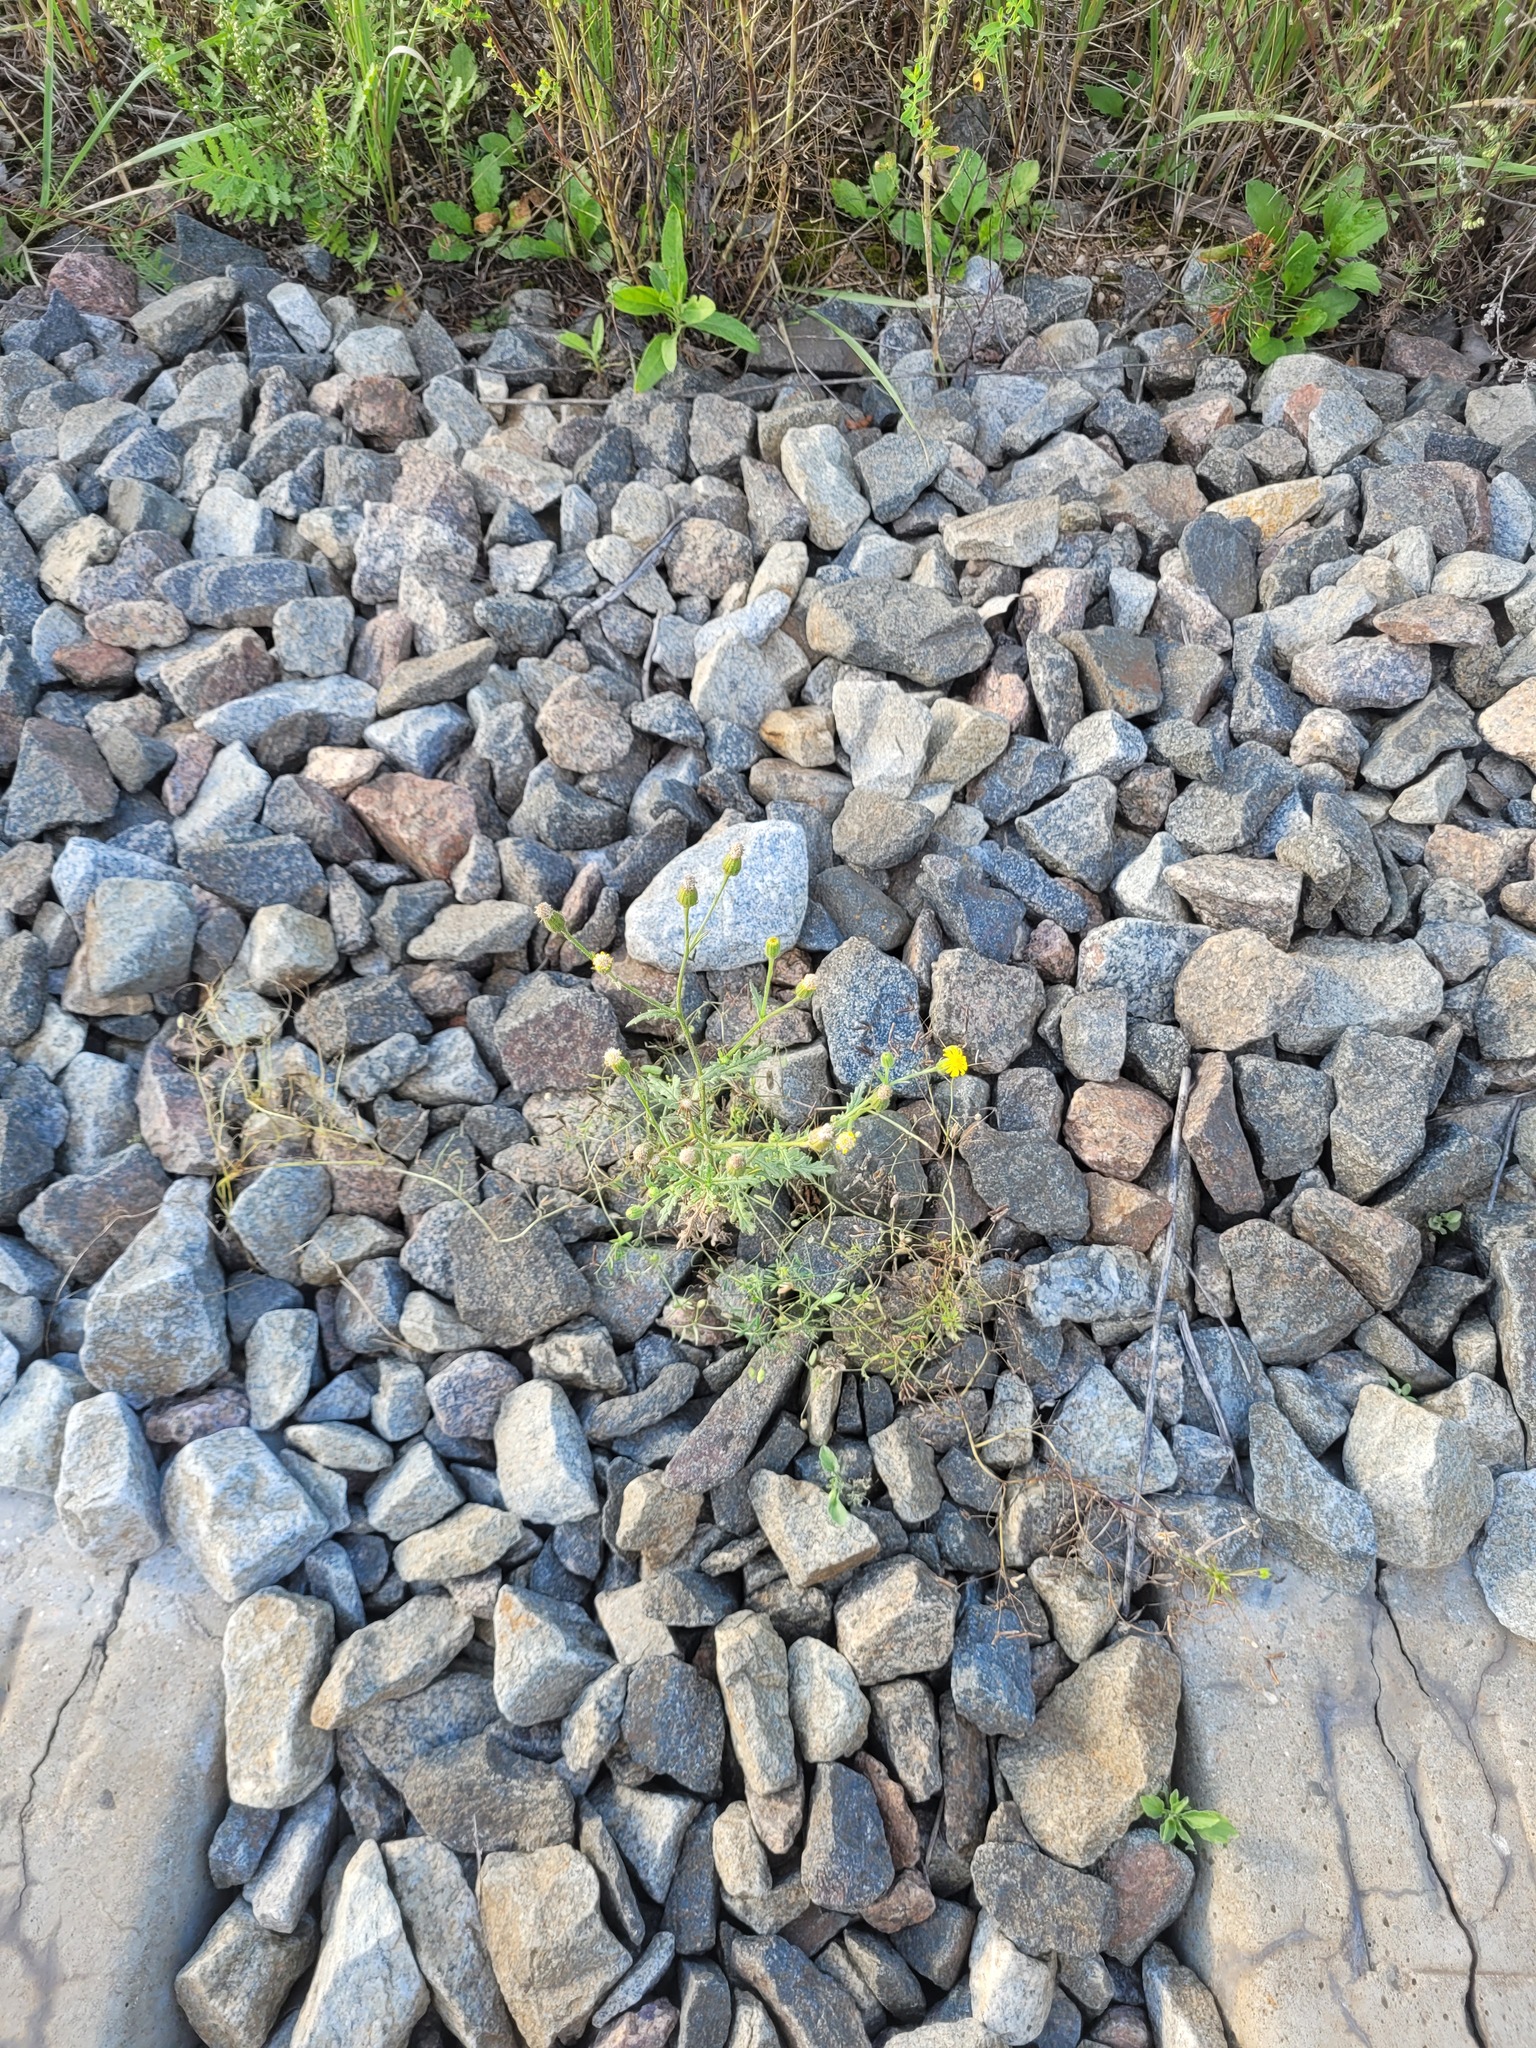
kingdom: Plantae
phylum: Tracheophyta
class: Magnoliopsida
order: Asterales
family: Asteraceae
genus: Senecio
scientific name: Senecio viscosus
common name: Sticky groundsel
